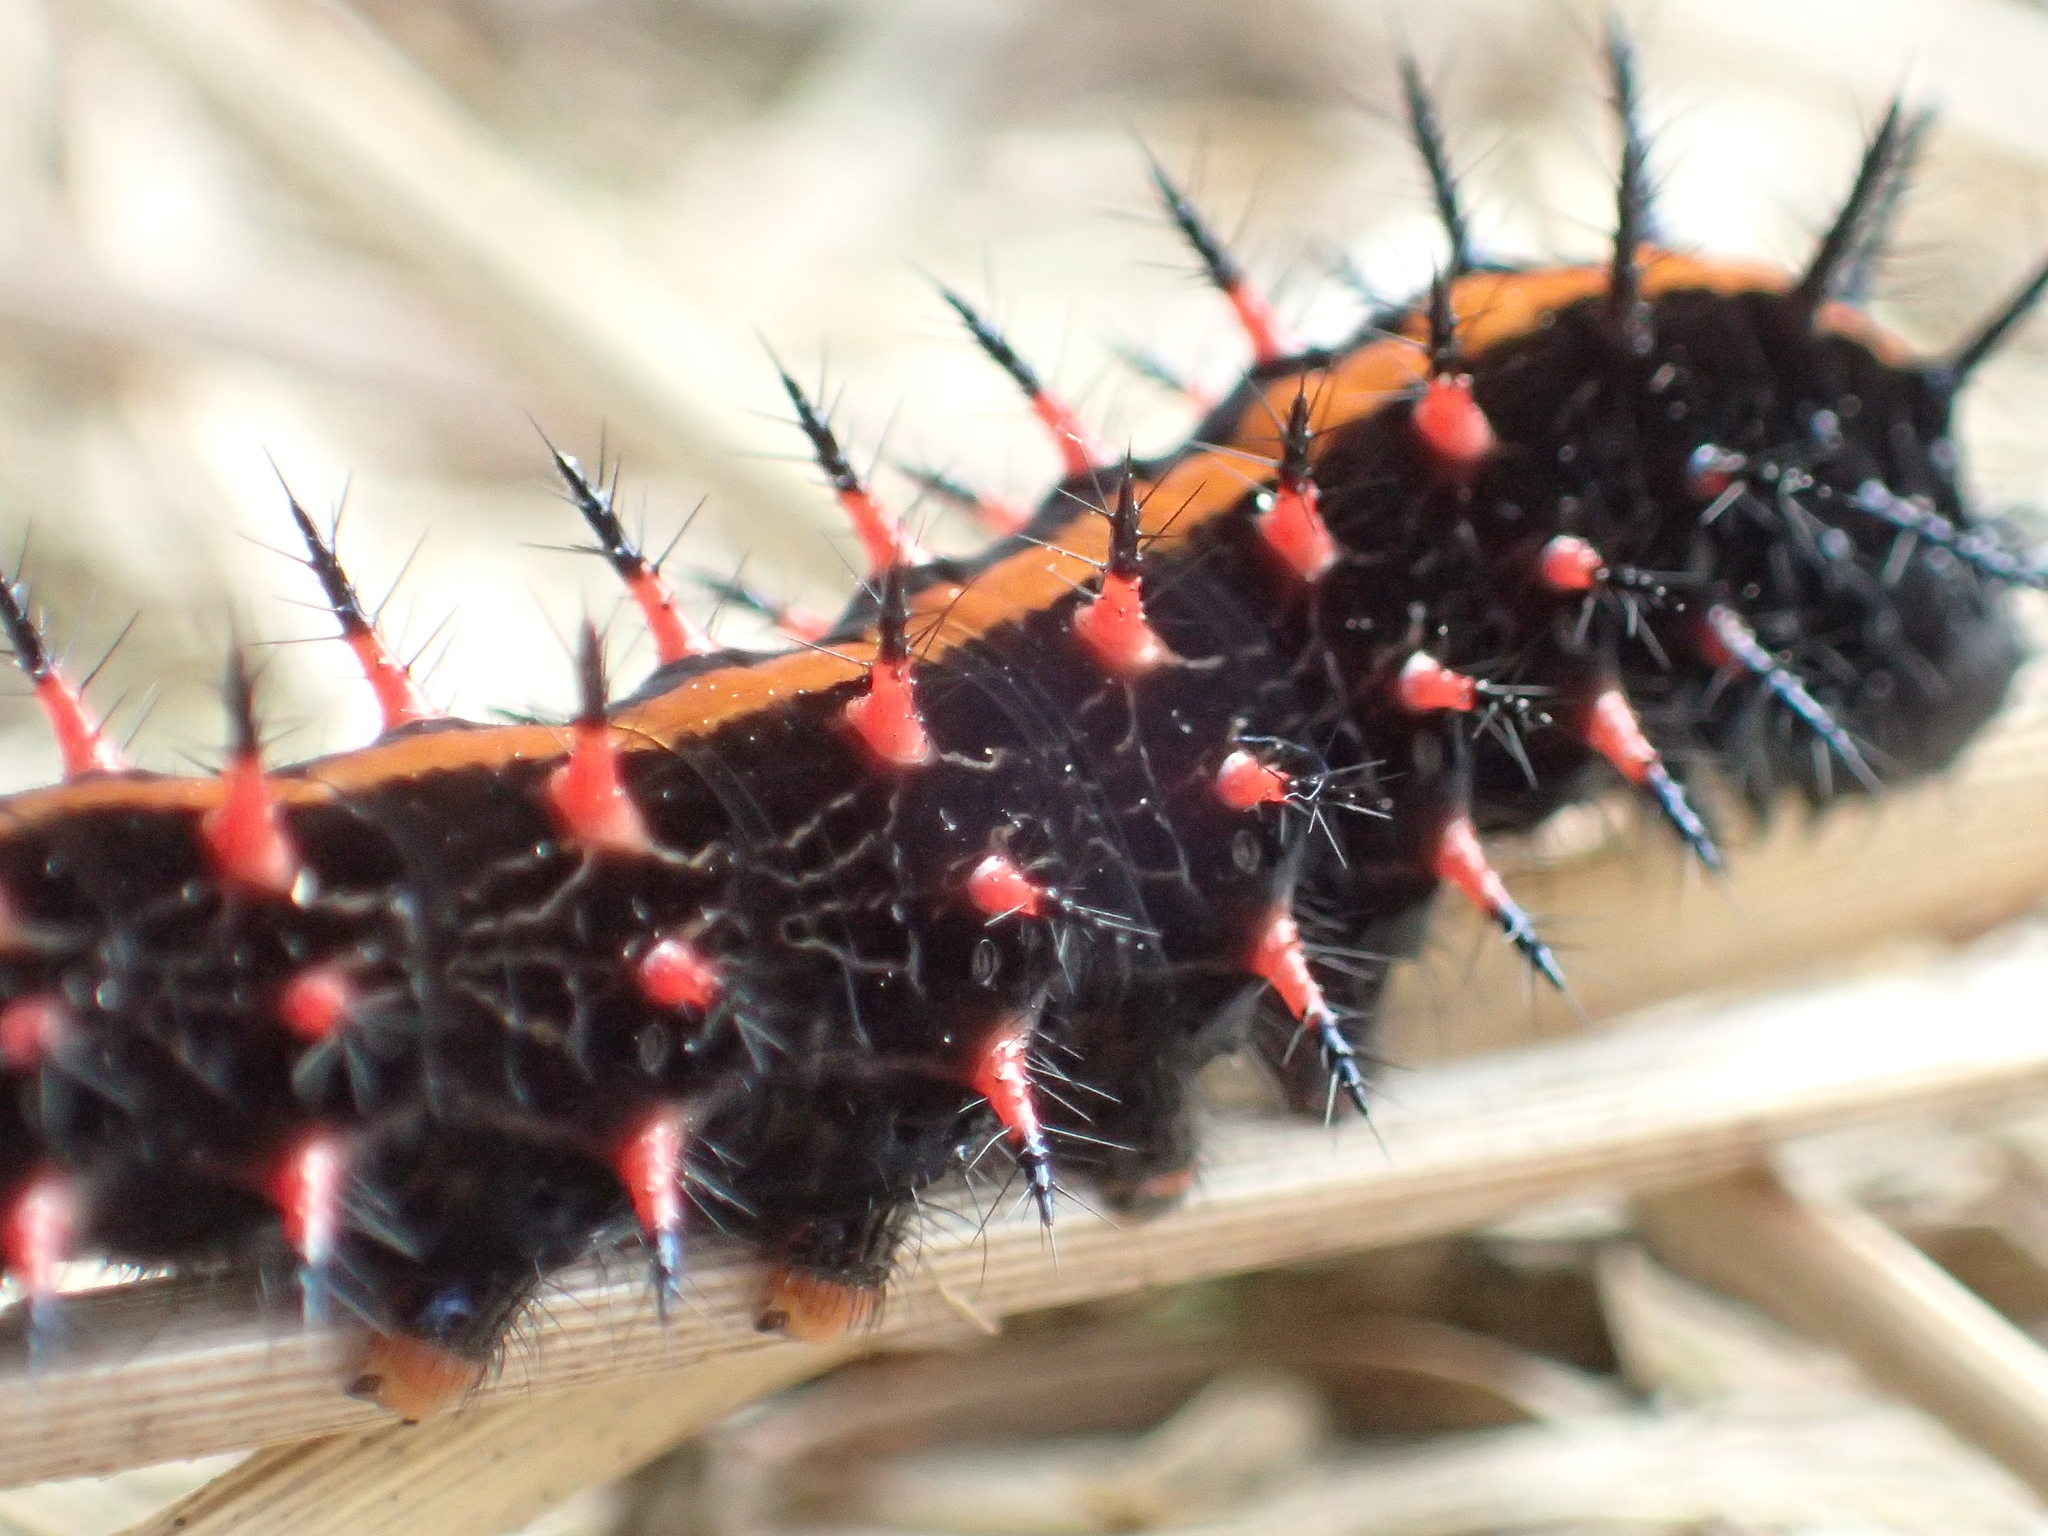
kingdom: Animalia
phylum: Arthropoda
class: Insecta
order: Lepidoptera
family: Nymphalidae
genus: Argynnis
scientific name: Argynnis hyperbius
